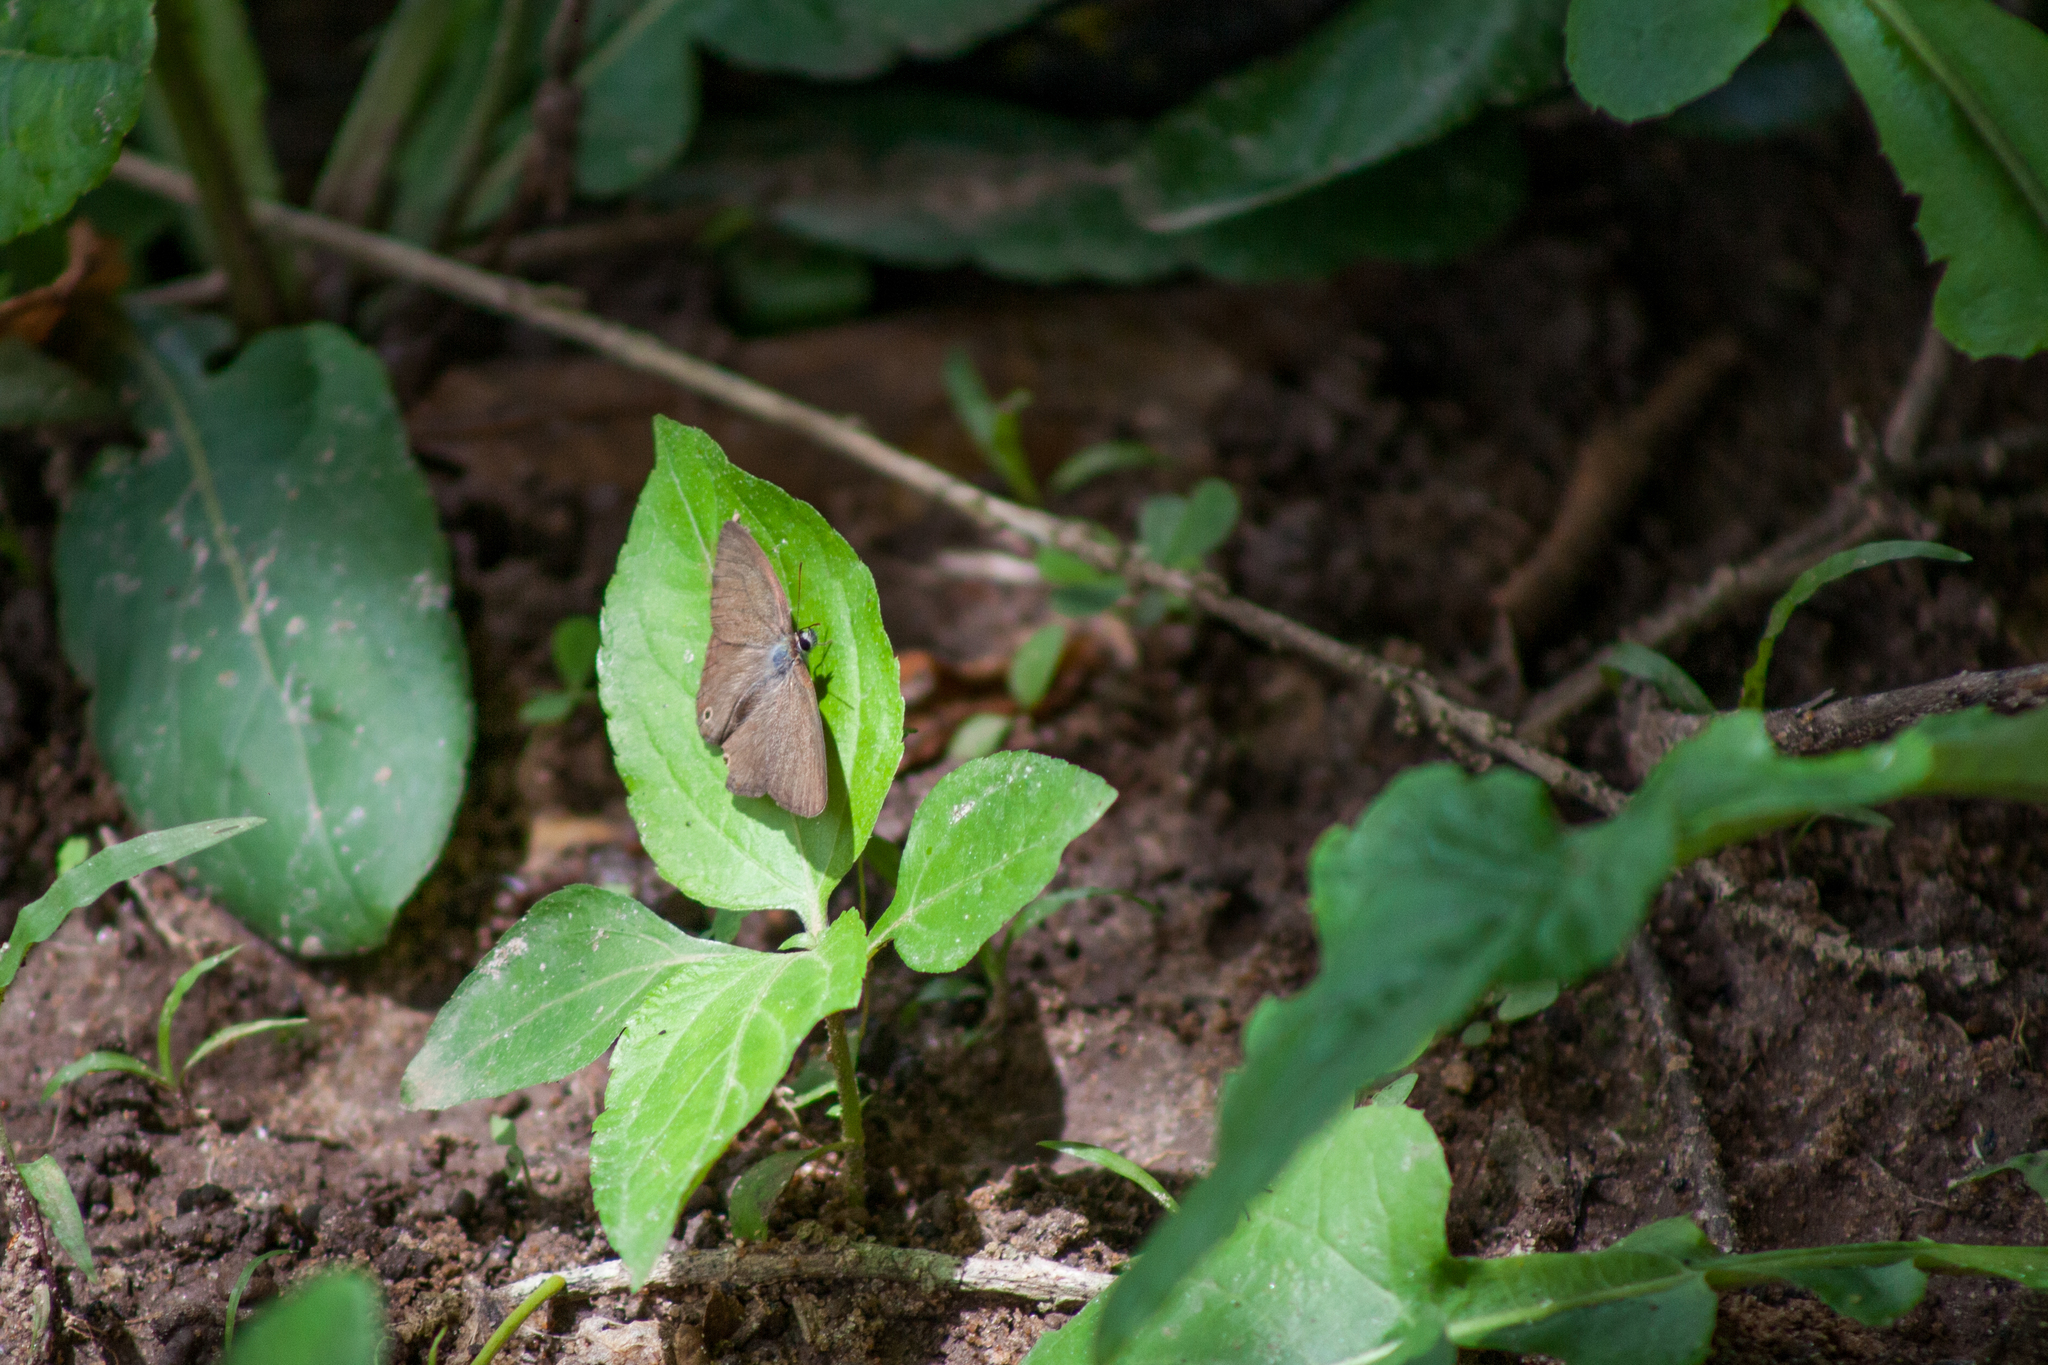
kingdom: Animalia
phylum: Arthropoda
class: Insecta
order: Lepidoptera
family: Nymphalidae
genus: Euptychiina
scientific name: Euptychiina
